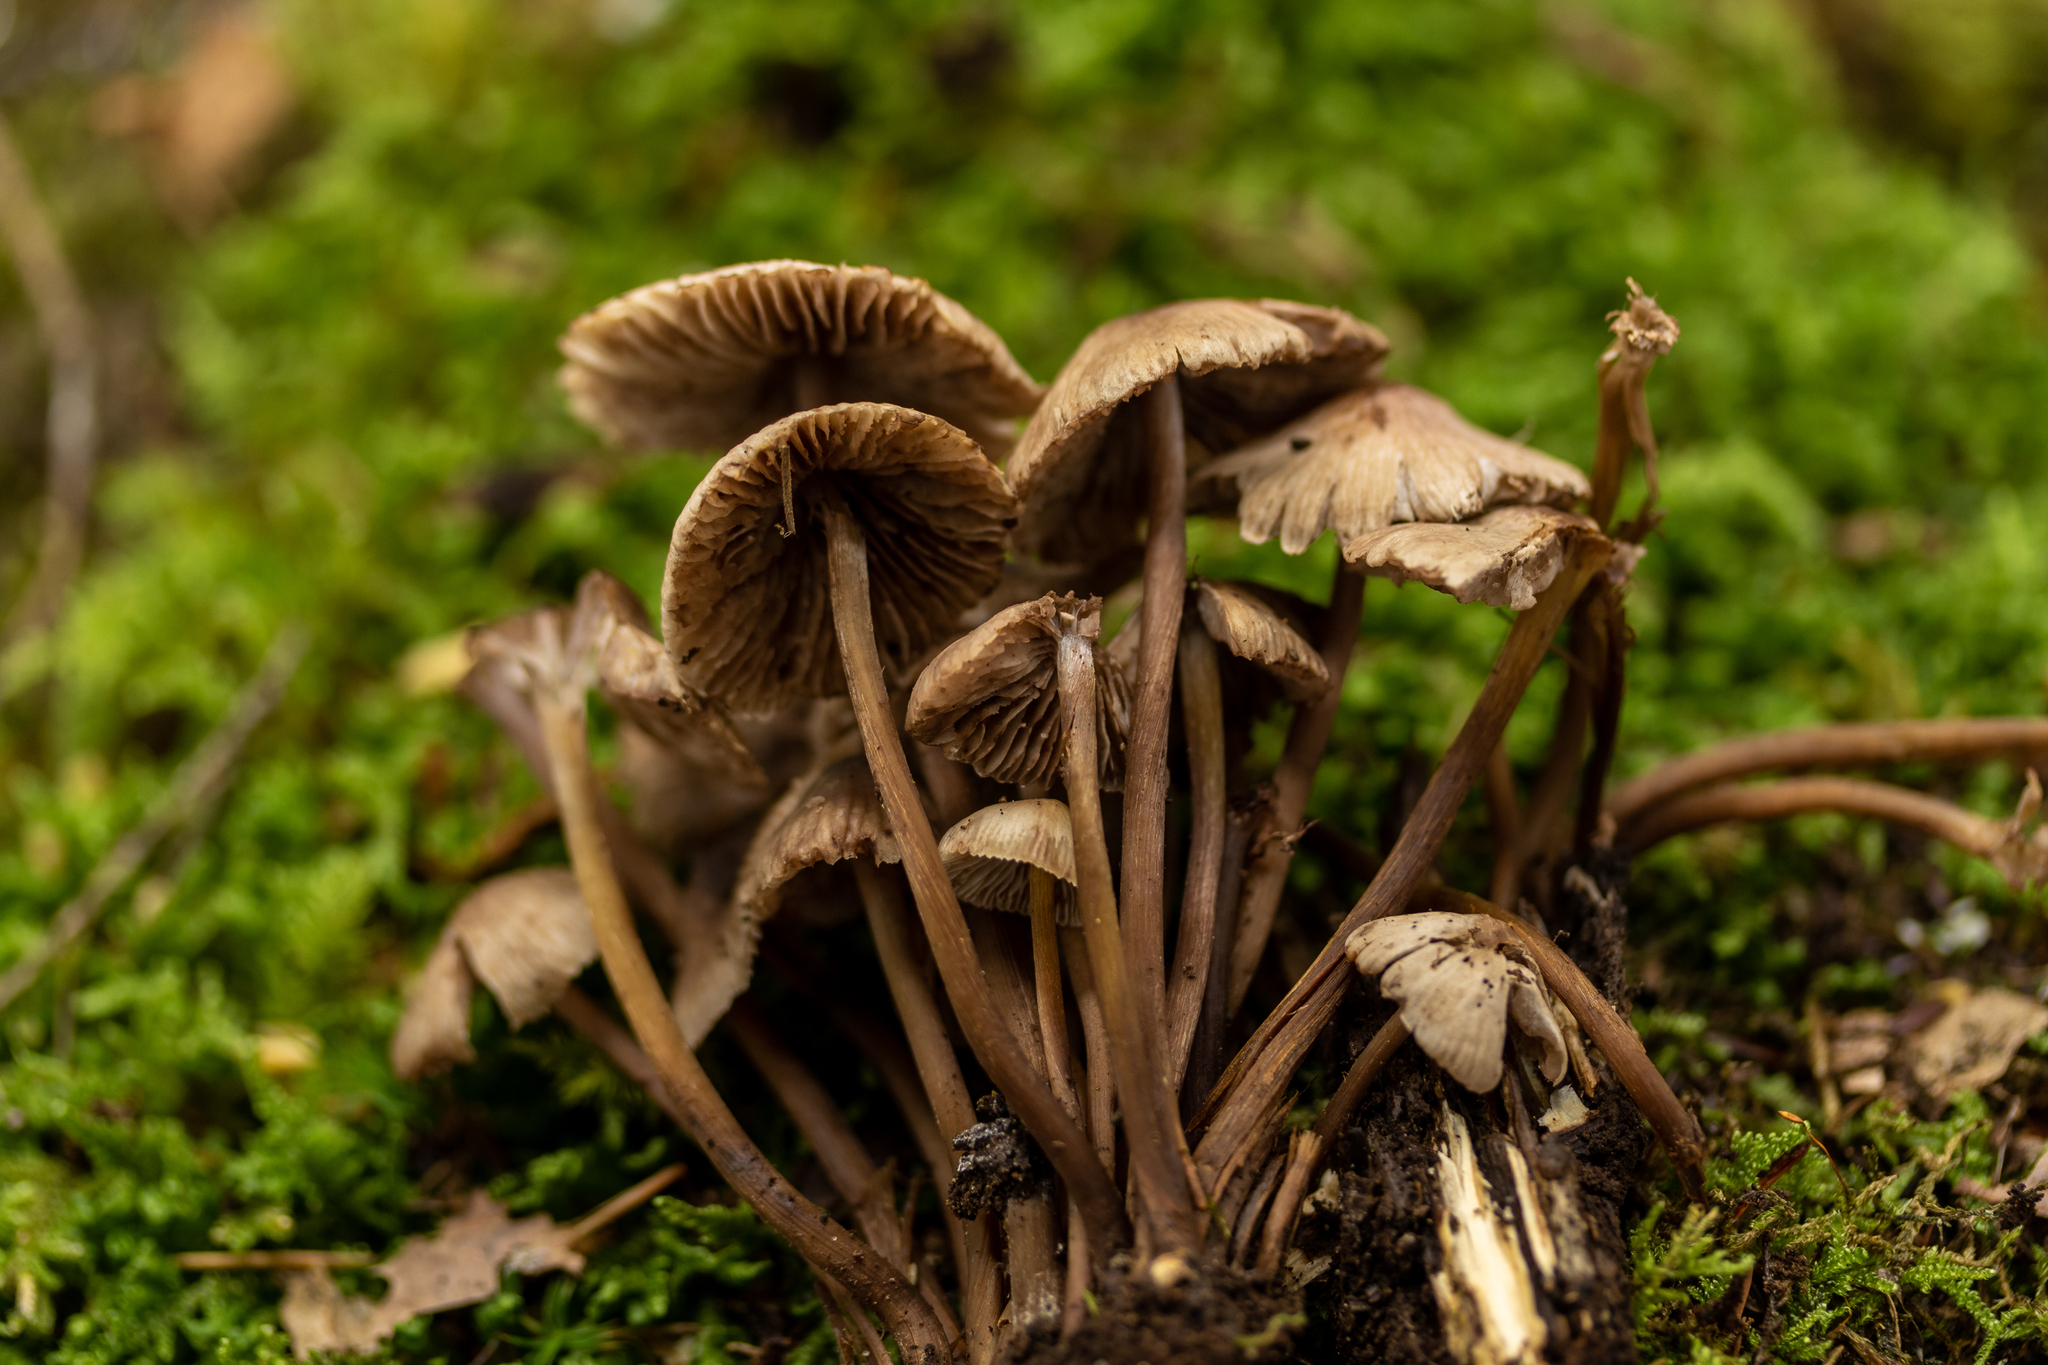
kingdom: Fungi
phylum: Basidiomycota
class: Agaricomycetes
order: Agaricales
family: Mycenaceae
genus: Mycena
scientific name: Mycena inclinata
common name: Clustered bonnet
